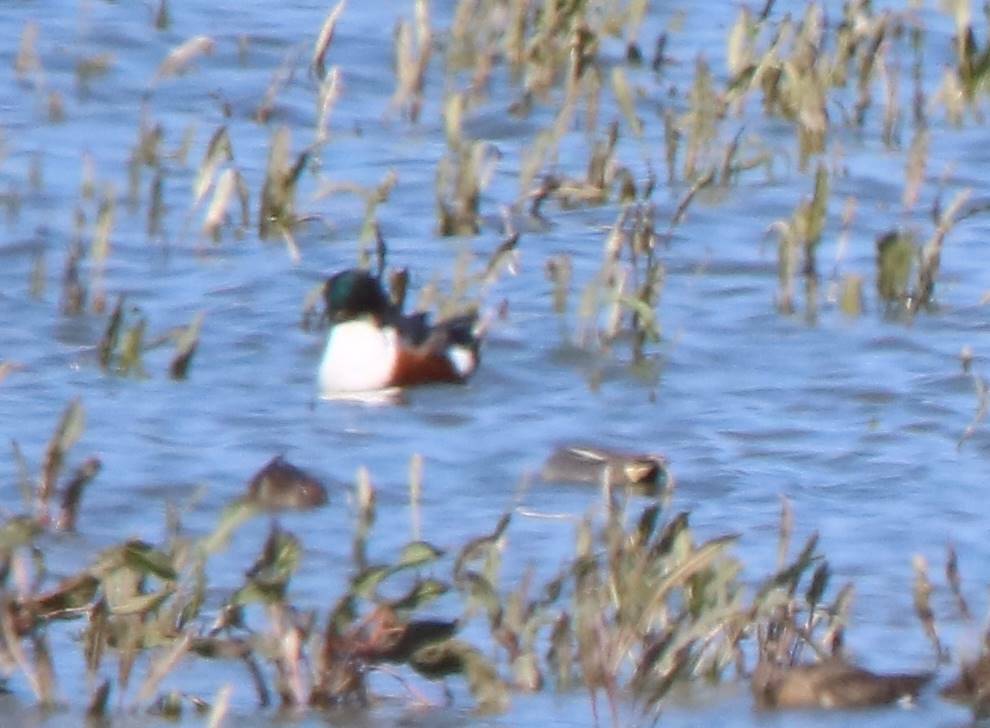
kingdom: Animalia
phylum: Chordata
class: Aves
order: Anseriformes
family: Anatidae
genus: Spatula
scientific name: Spatula clypeata
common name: Northern shoveler
